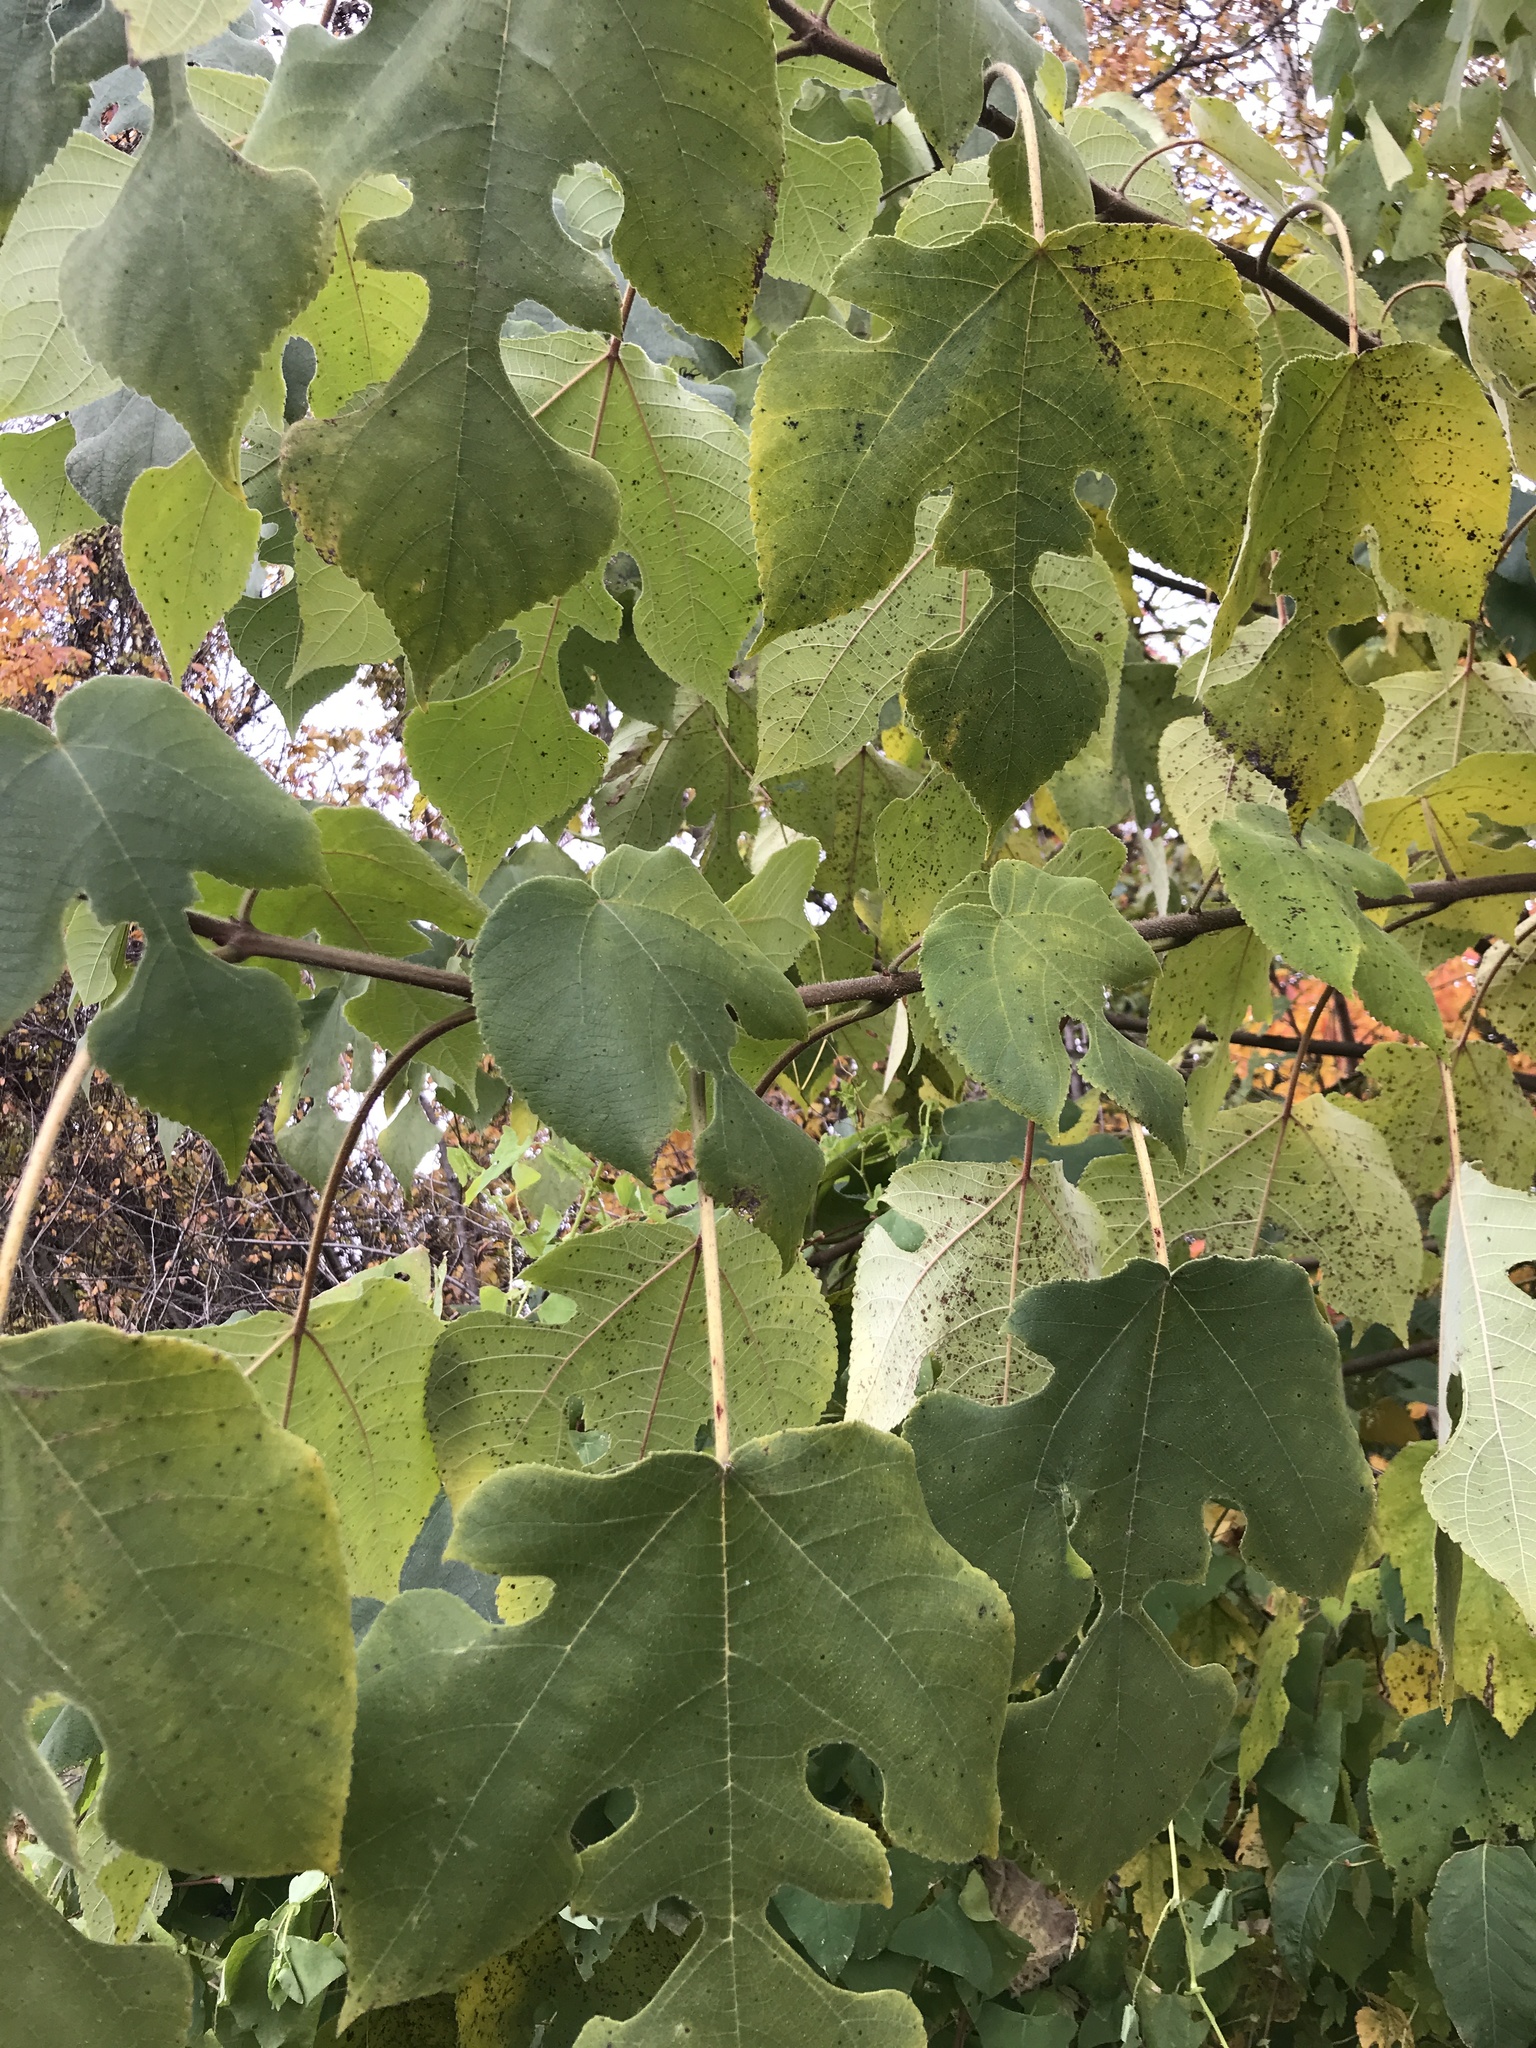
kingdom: Plantae
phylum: Tracheophyta
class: Magnoliopsida
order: Rosales
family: Moraceae
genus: Broussonetia
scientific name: Broussonetia papyrifera
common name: Paper mulberry
